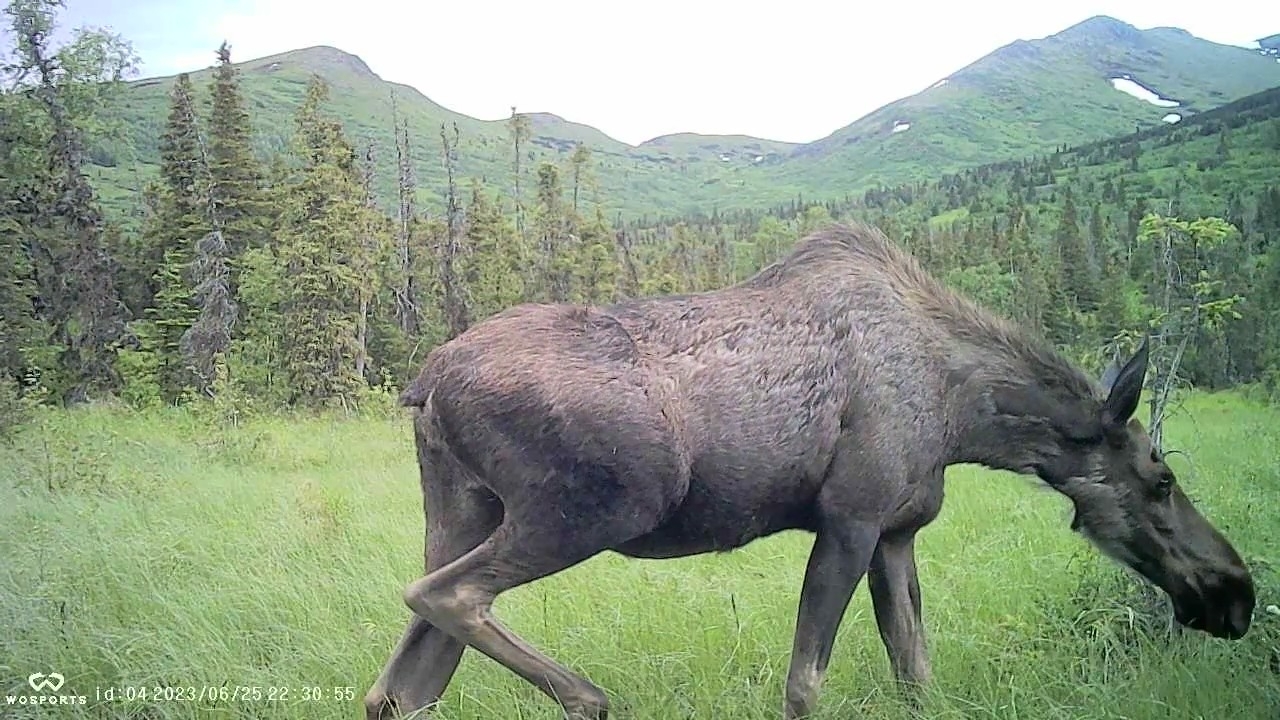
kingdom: Animalia
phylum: Chordata
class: Mammalia
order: Artiodactyla
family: Cervidae
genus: Alces
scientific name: Alces alces
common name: Moose
